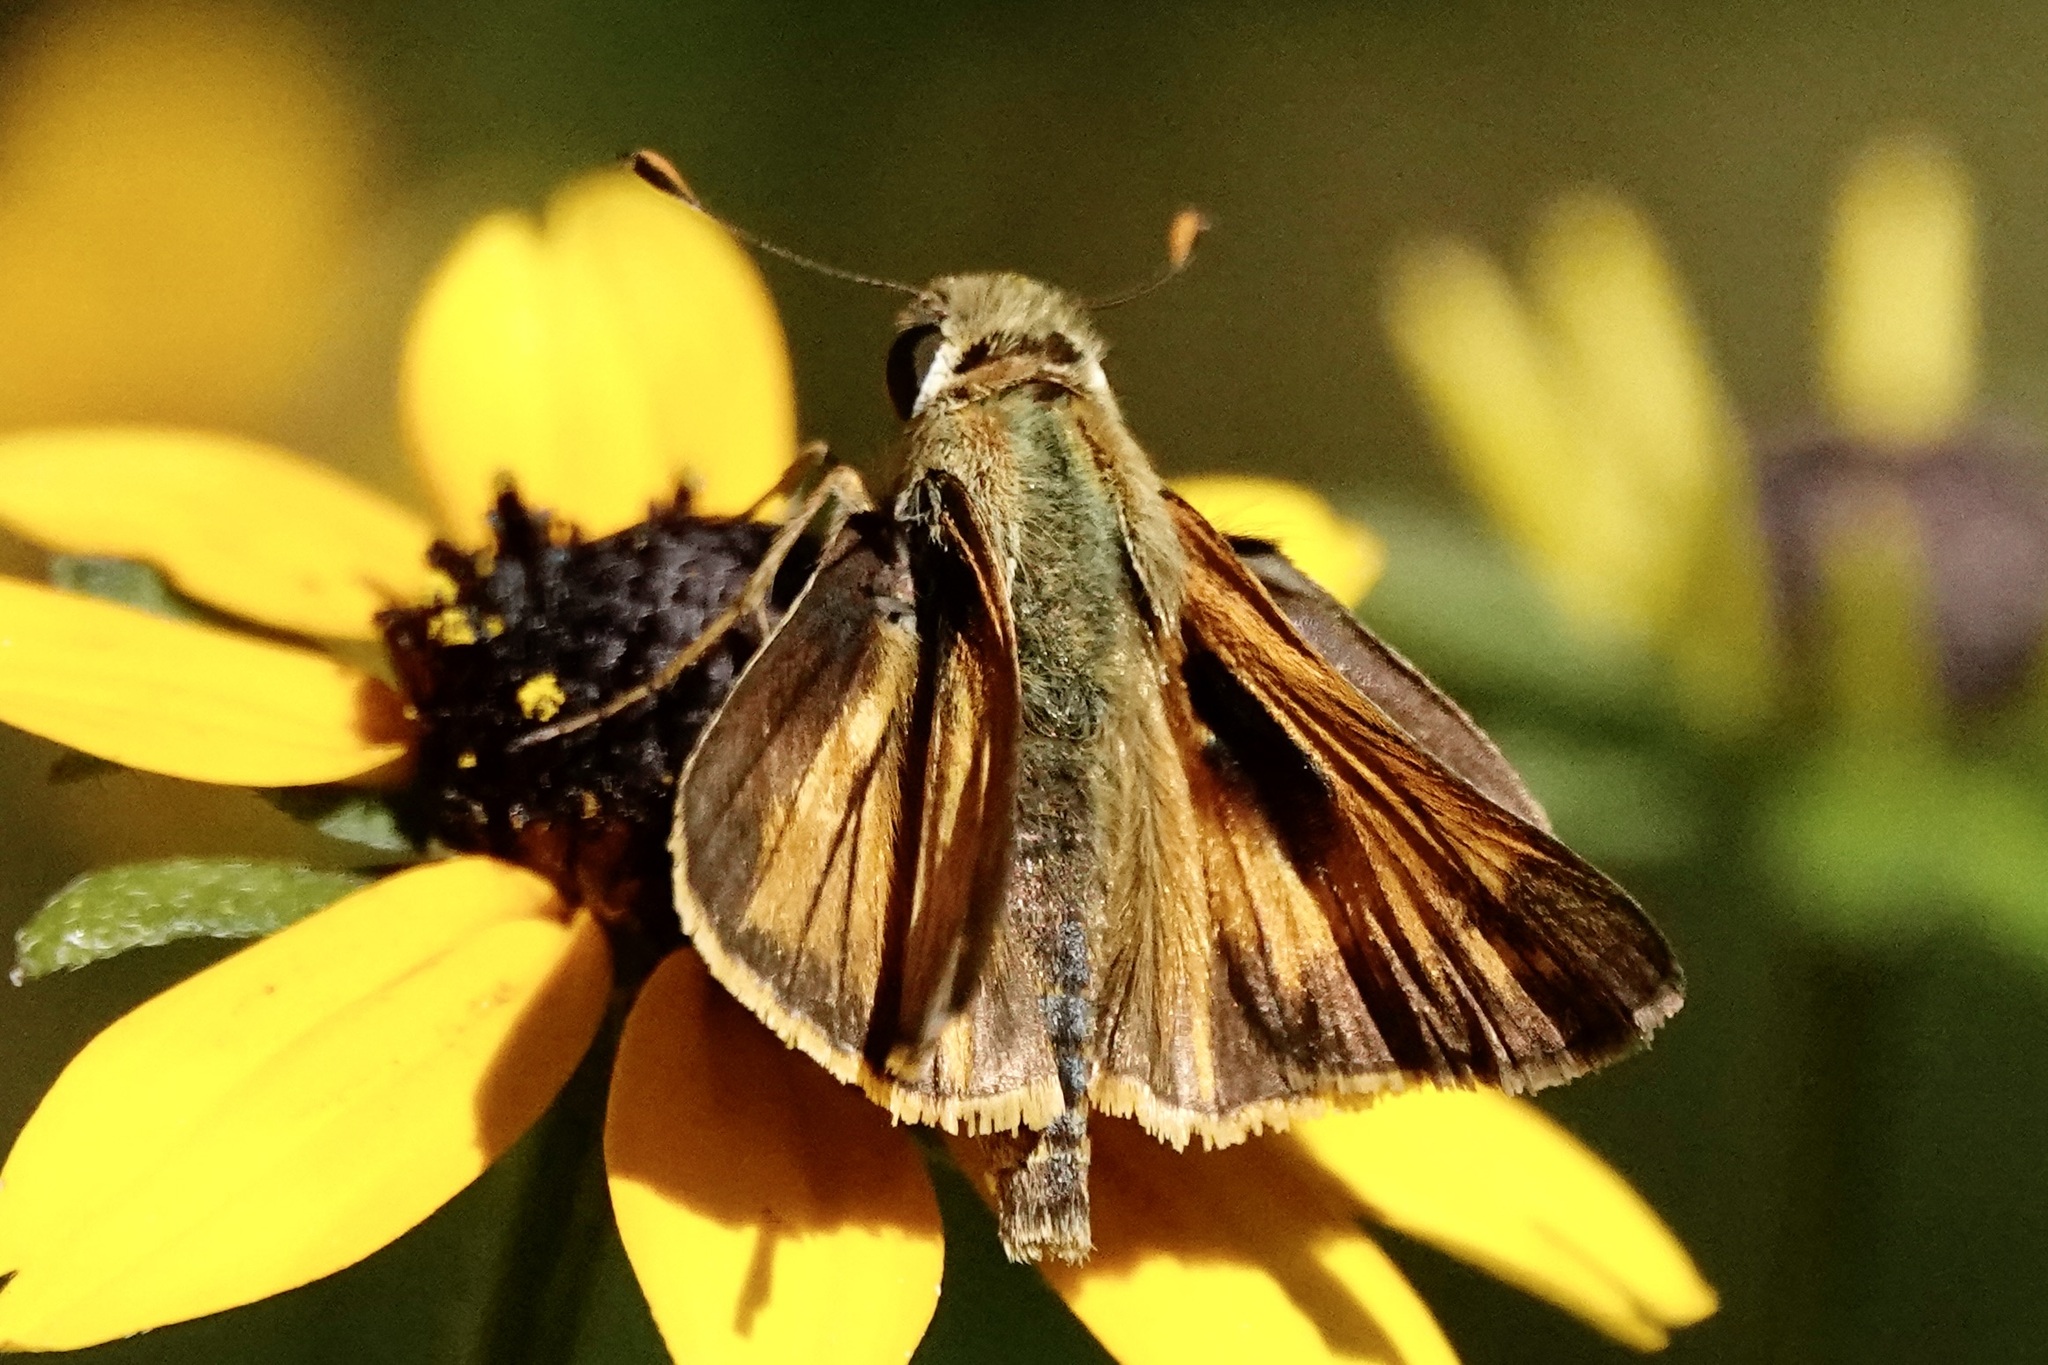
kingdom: Animalia
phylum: Arthropoda
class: Insecta
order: Lepidoptera
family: Hesperiidae
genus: Atalopedes
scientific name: Atalopedes
